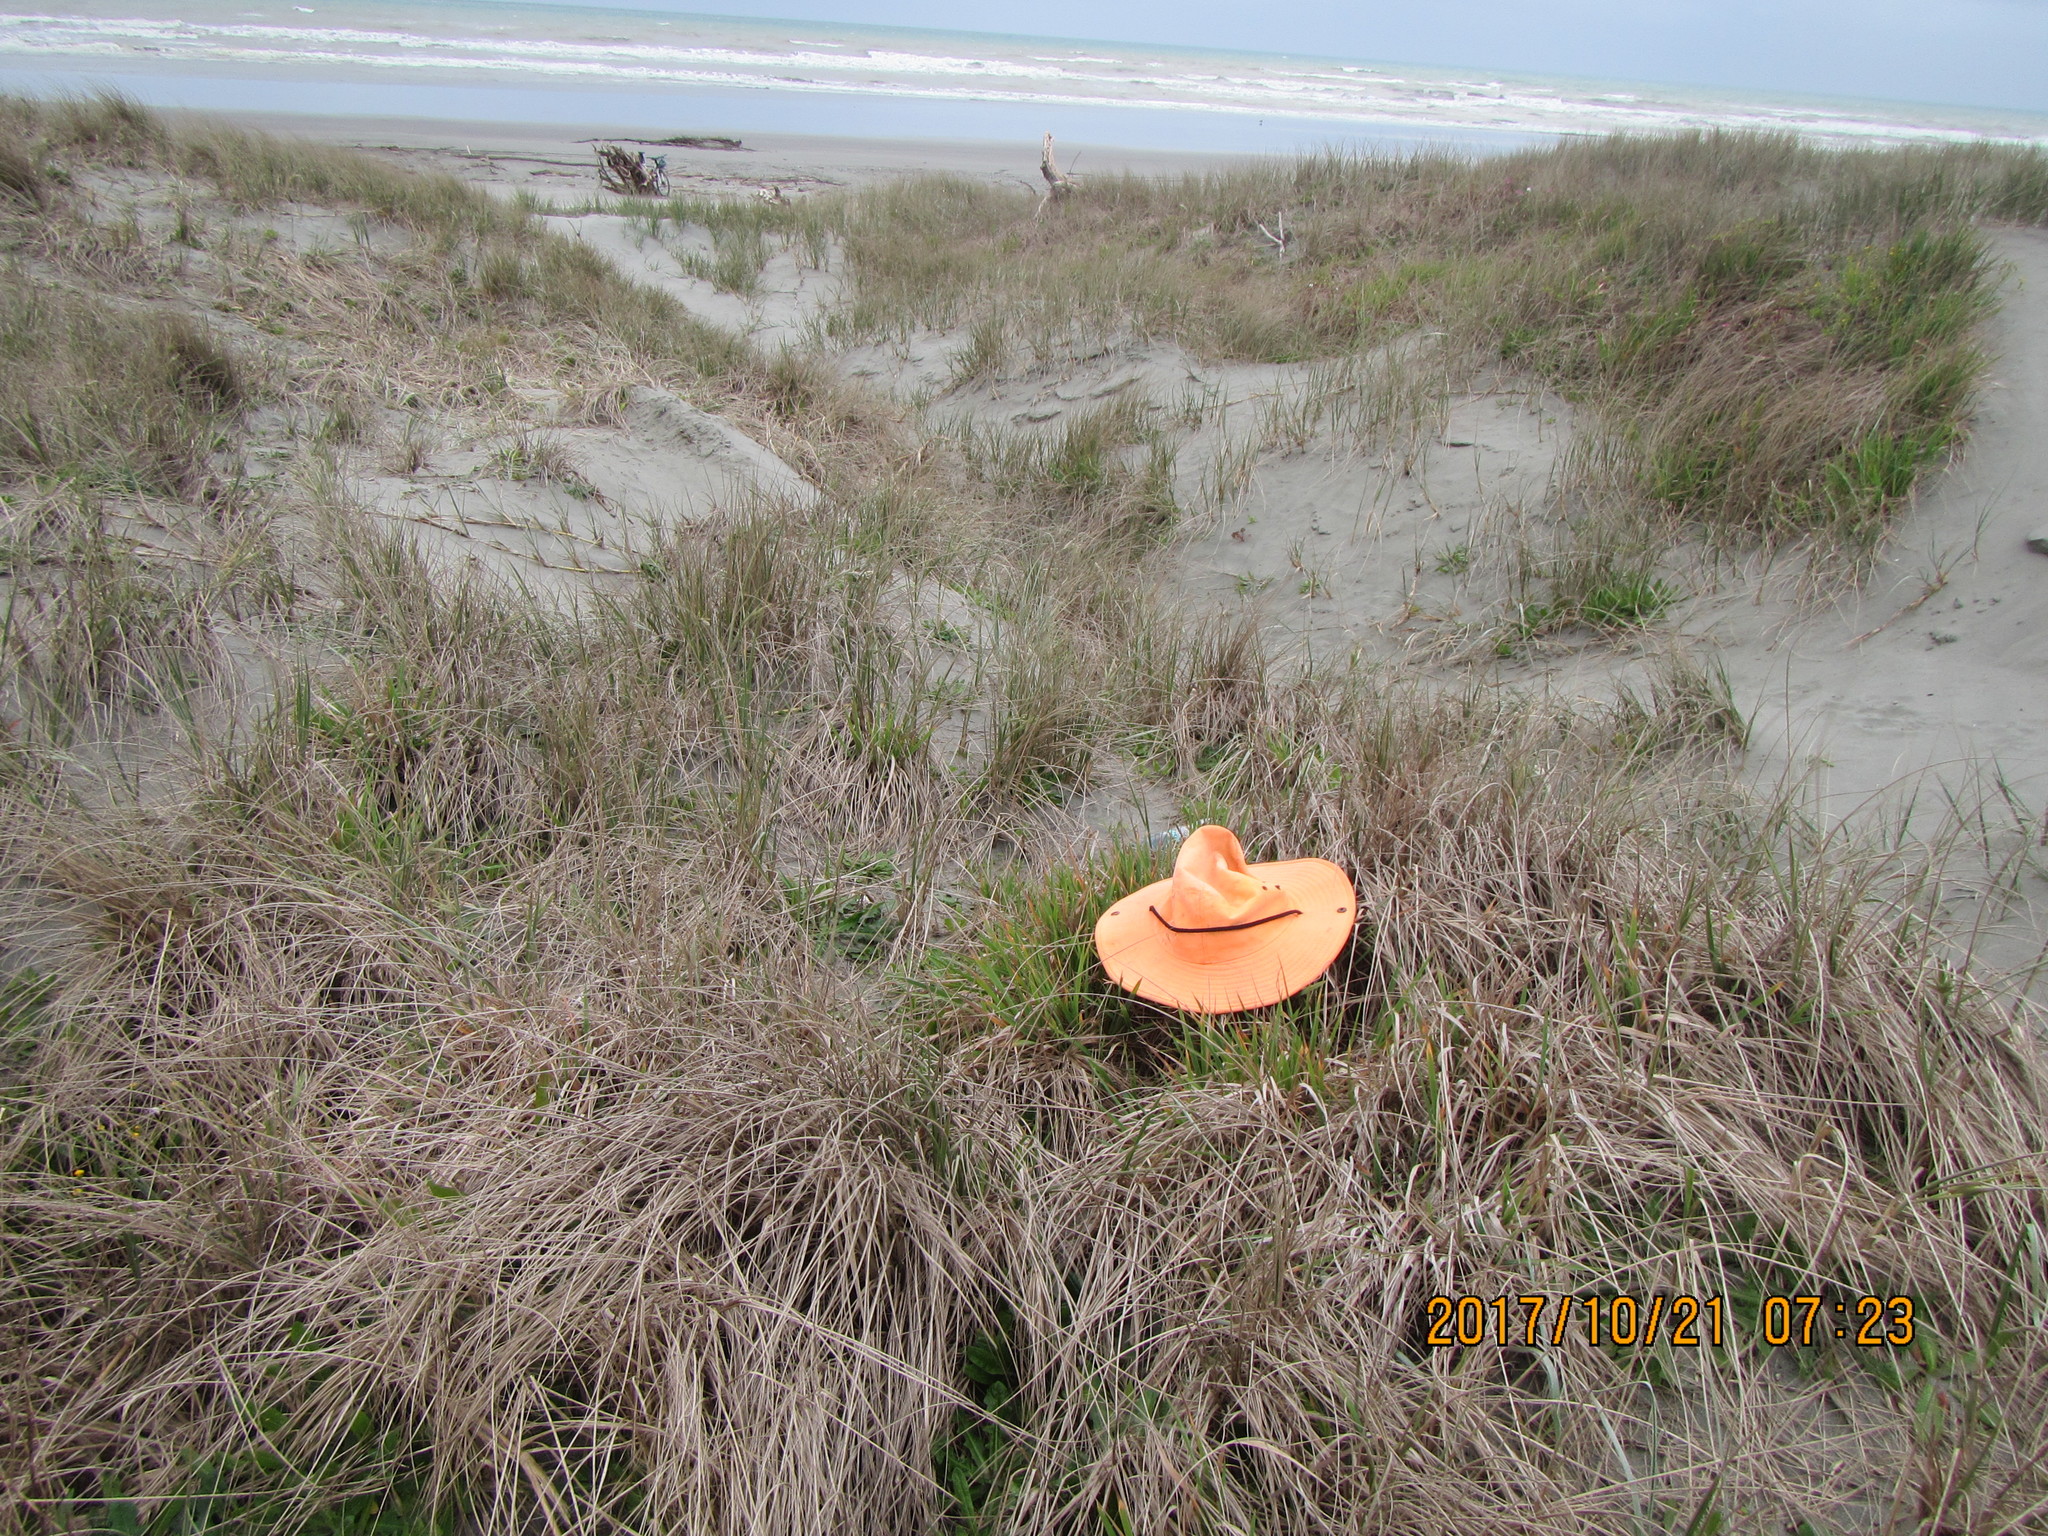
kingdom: Plantae
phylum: Tracheophyta
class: Liliopsida
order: Poales
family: Poaceae
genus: Lachnagrostis
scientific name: Lachnagrostis billardierei
